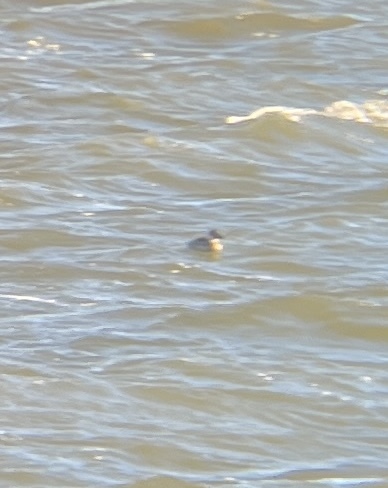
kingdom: Animalia
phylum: Chordata
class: Aves
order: Anseriformes
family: Anatidae
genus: Oxyura
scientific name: Oxyura jamaicensis
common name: Ruddy duck
